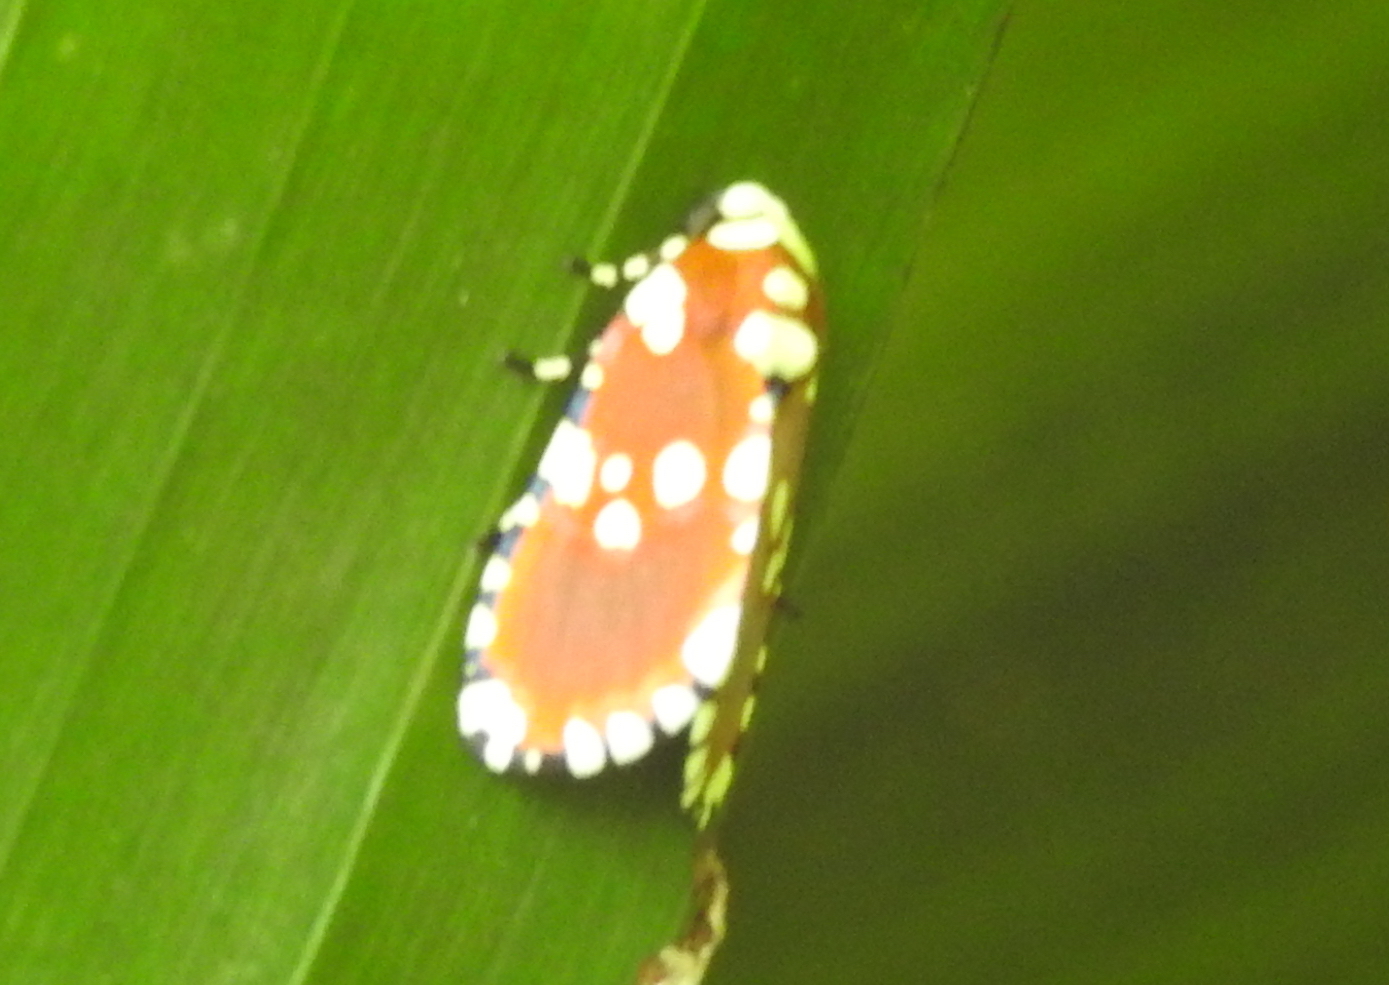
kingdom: Animalia
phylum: Arthropoda
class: Insecta
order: Lepidoptera
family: Noctuidae
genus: Yepcalphis
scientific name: Yepcalphis dilectissima
